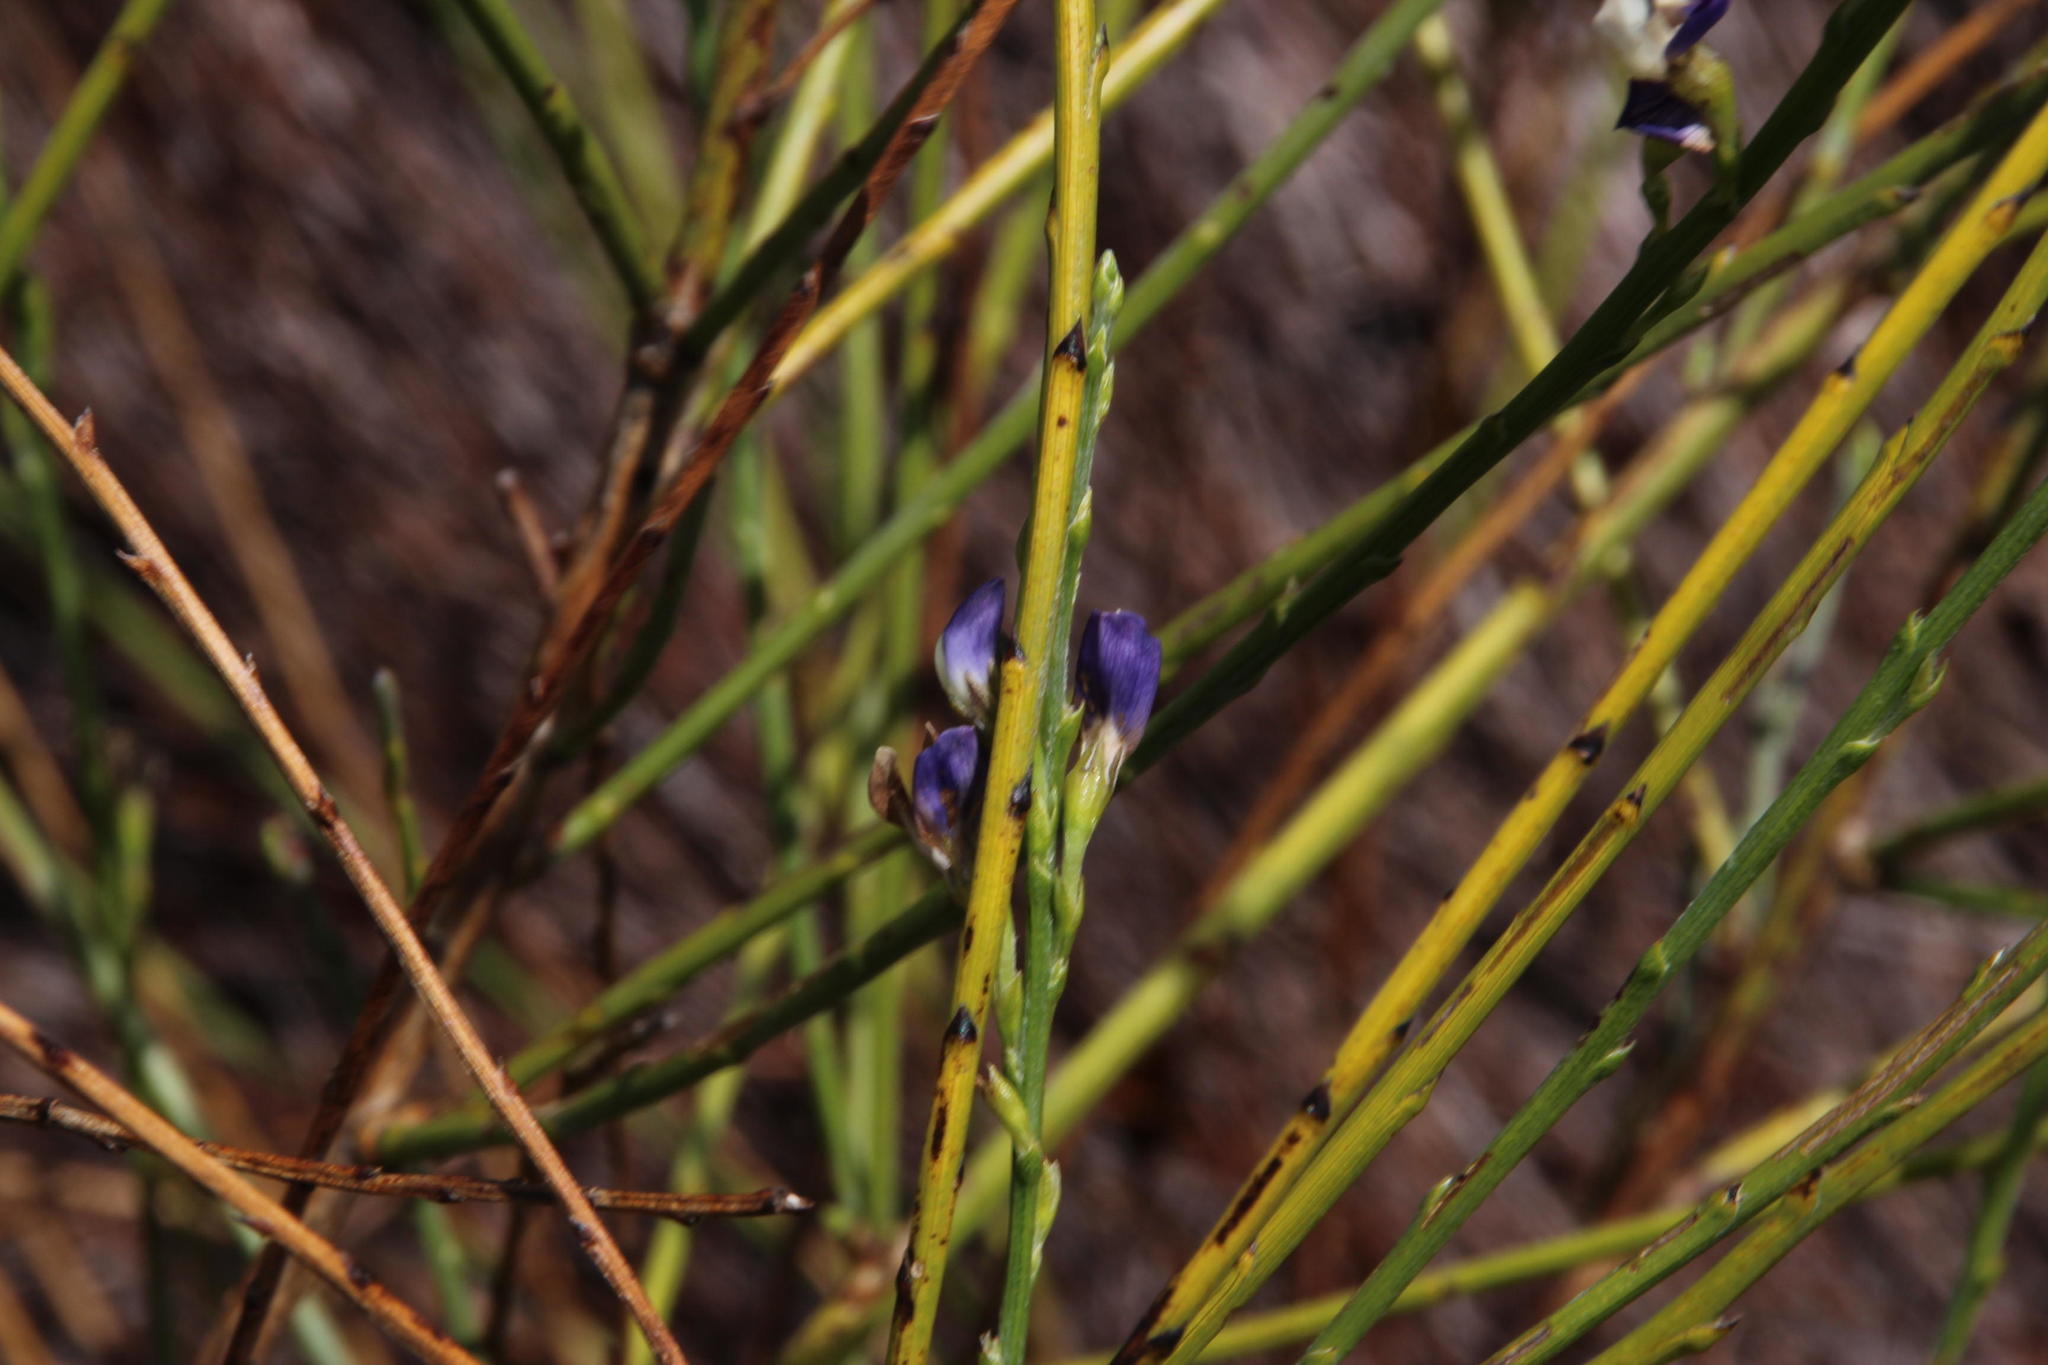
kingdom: Plantae
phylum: Tracheophyta
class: Magnoliopsida
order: Fabales
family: Fabaceae
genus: Psoralea
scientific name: Psoralea aphylla
